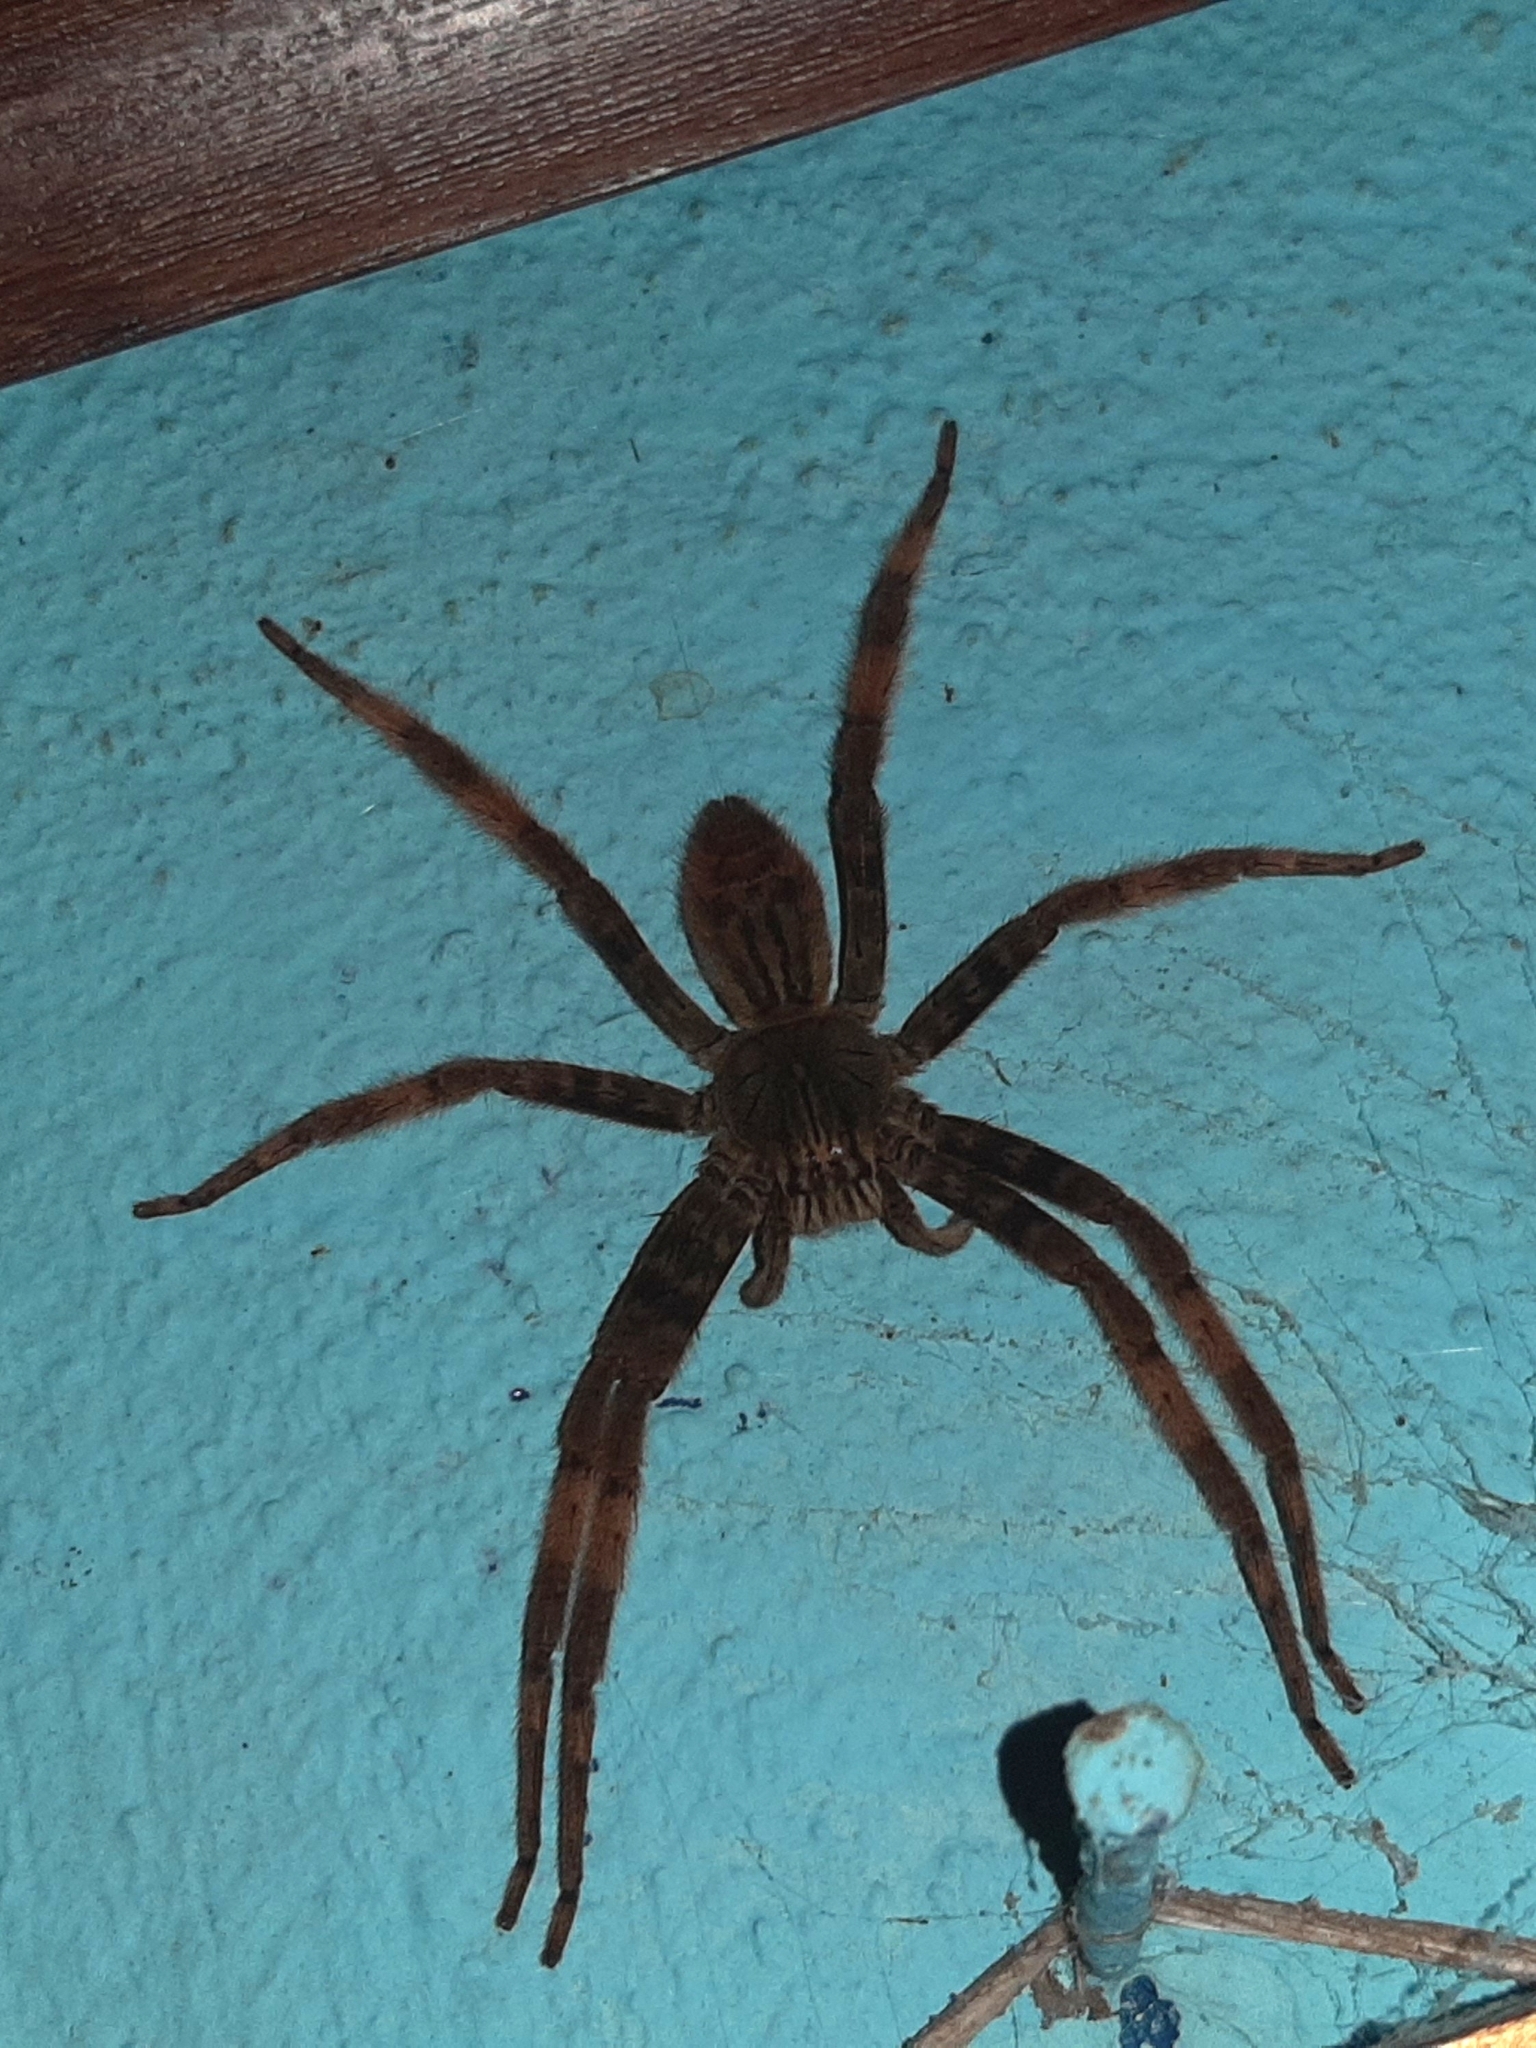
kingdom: Animalia
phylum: Arthropoda
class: Arachnida
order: Araneae
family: Trechaleidae
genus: Cupiennius
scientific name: Cupiennius salei
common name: Wandering spiders
